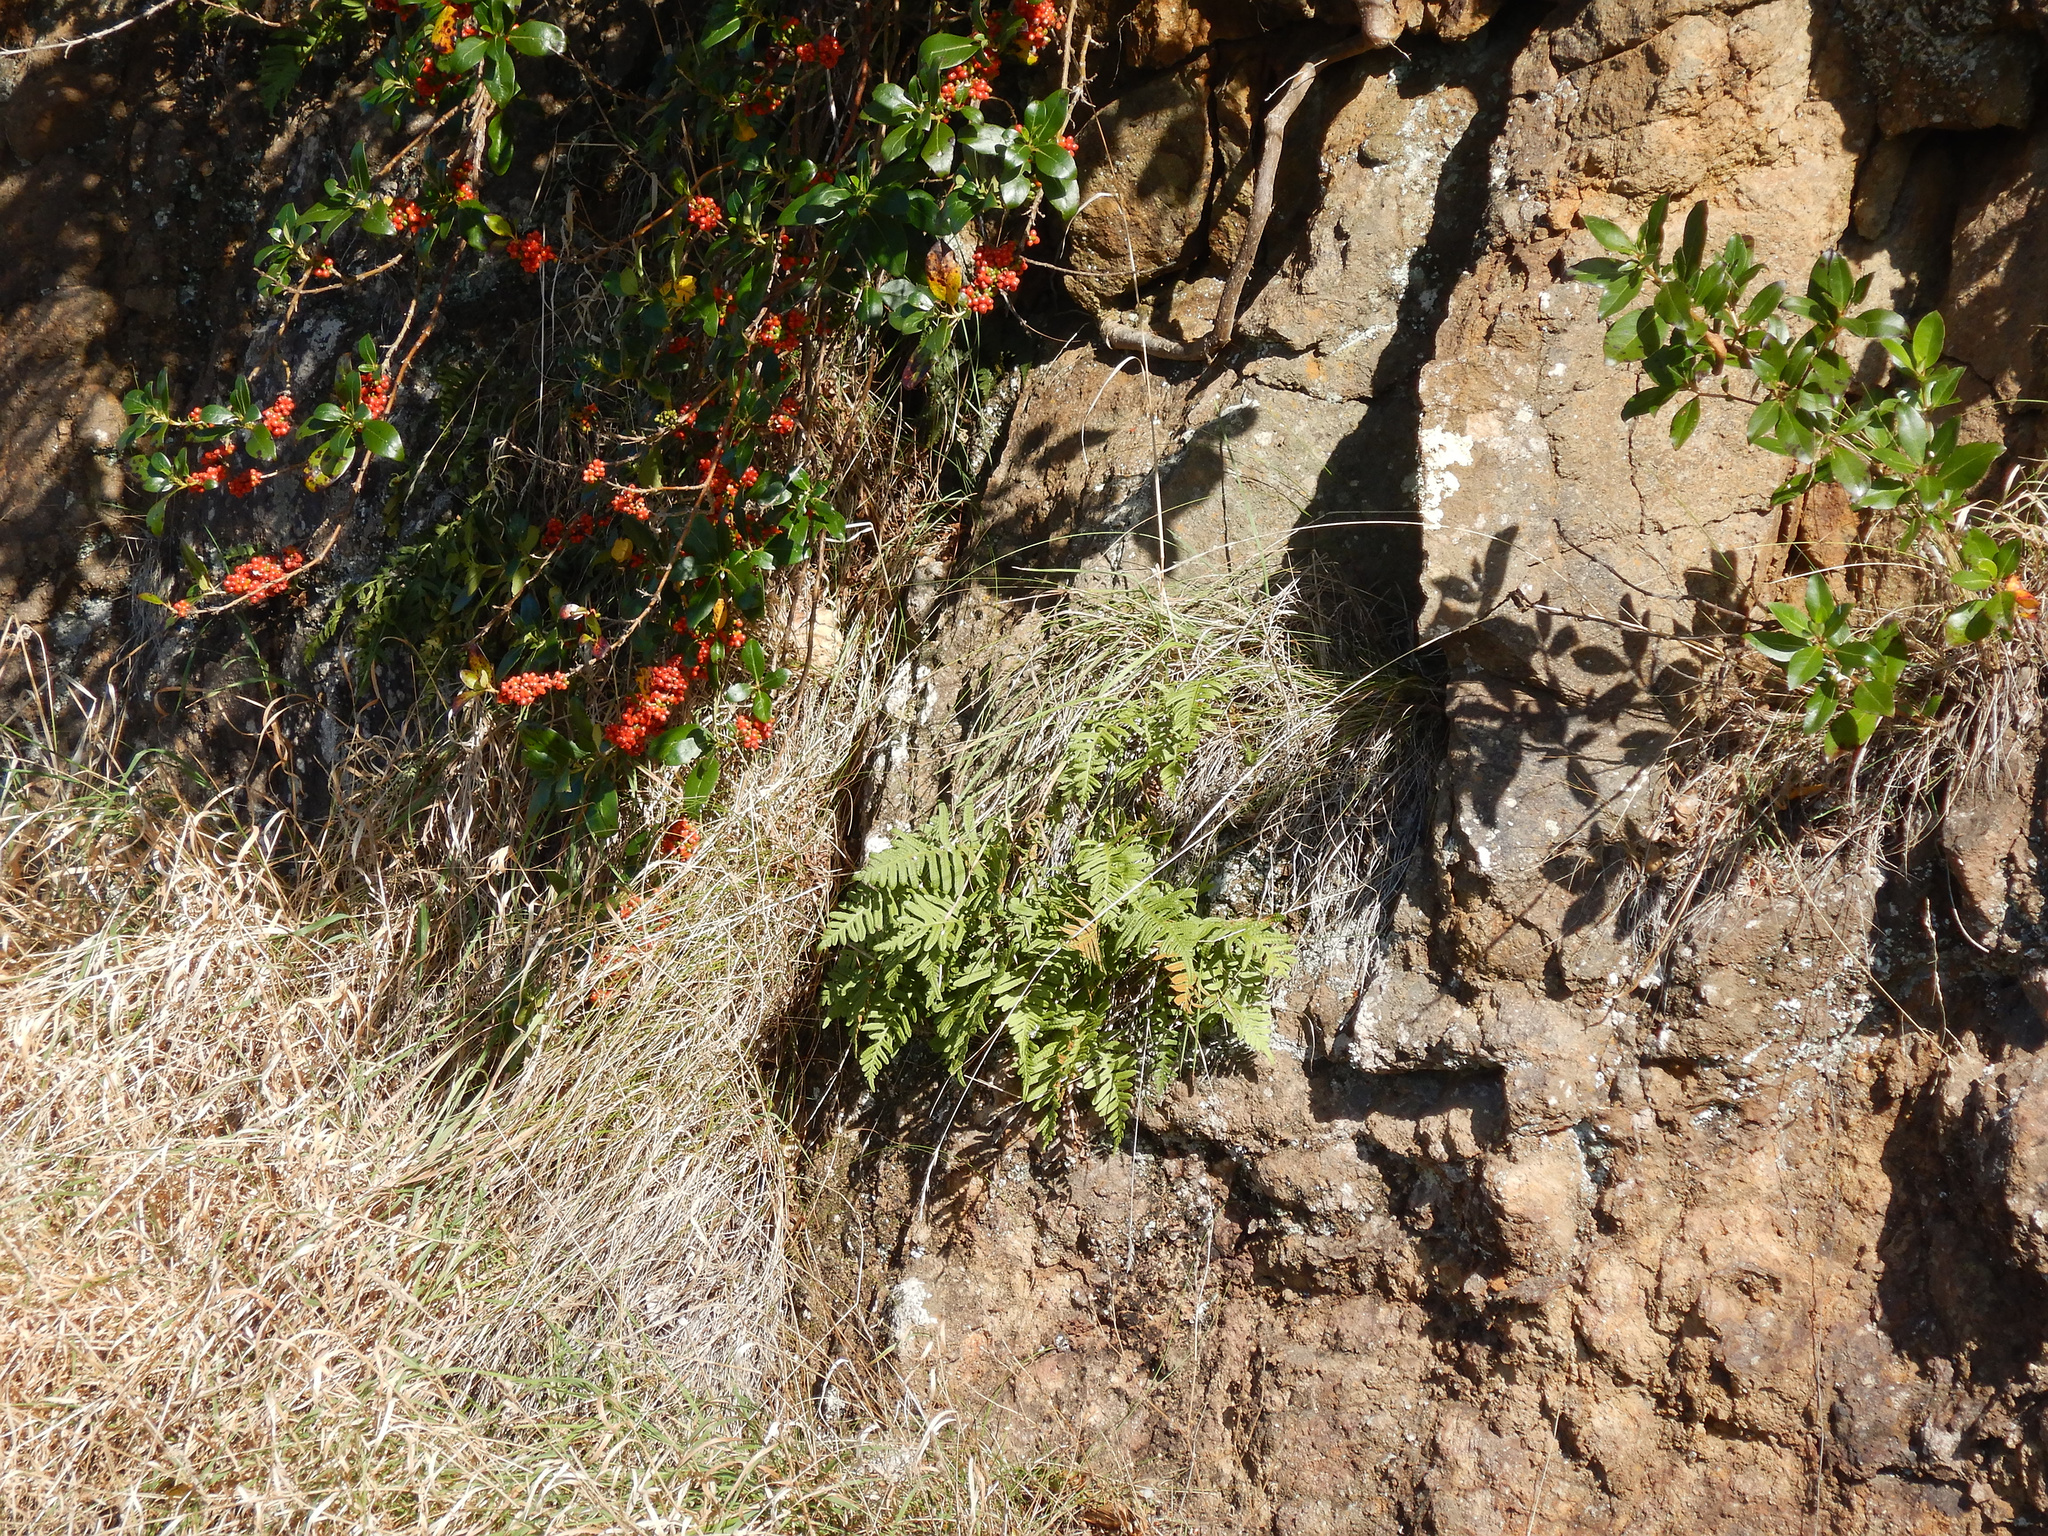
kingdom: Plantae
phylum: Tracheophyta
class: Polypodiopsida
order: Polypodiales
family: Polypodiaceae
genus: Polypodium
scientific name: Polypodium vulgare
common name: Common polypody
